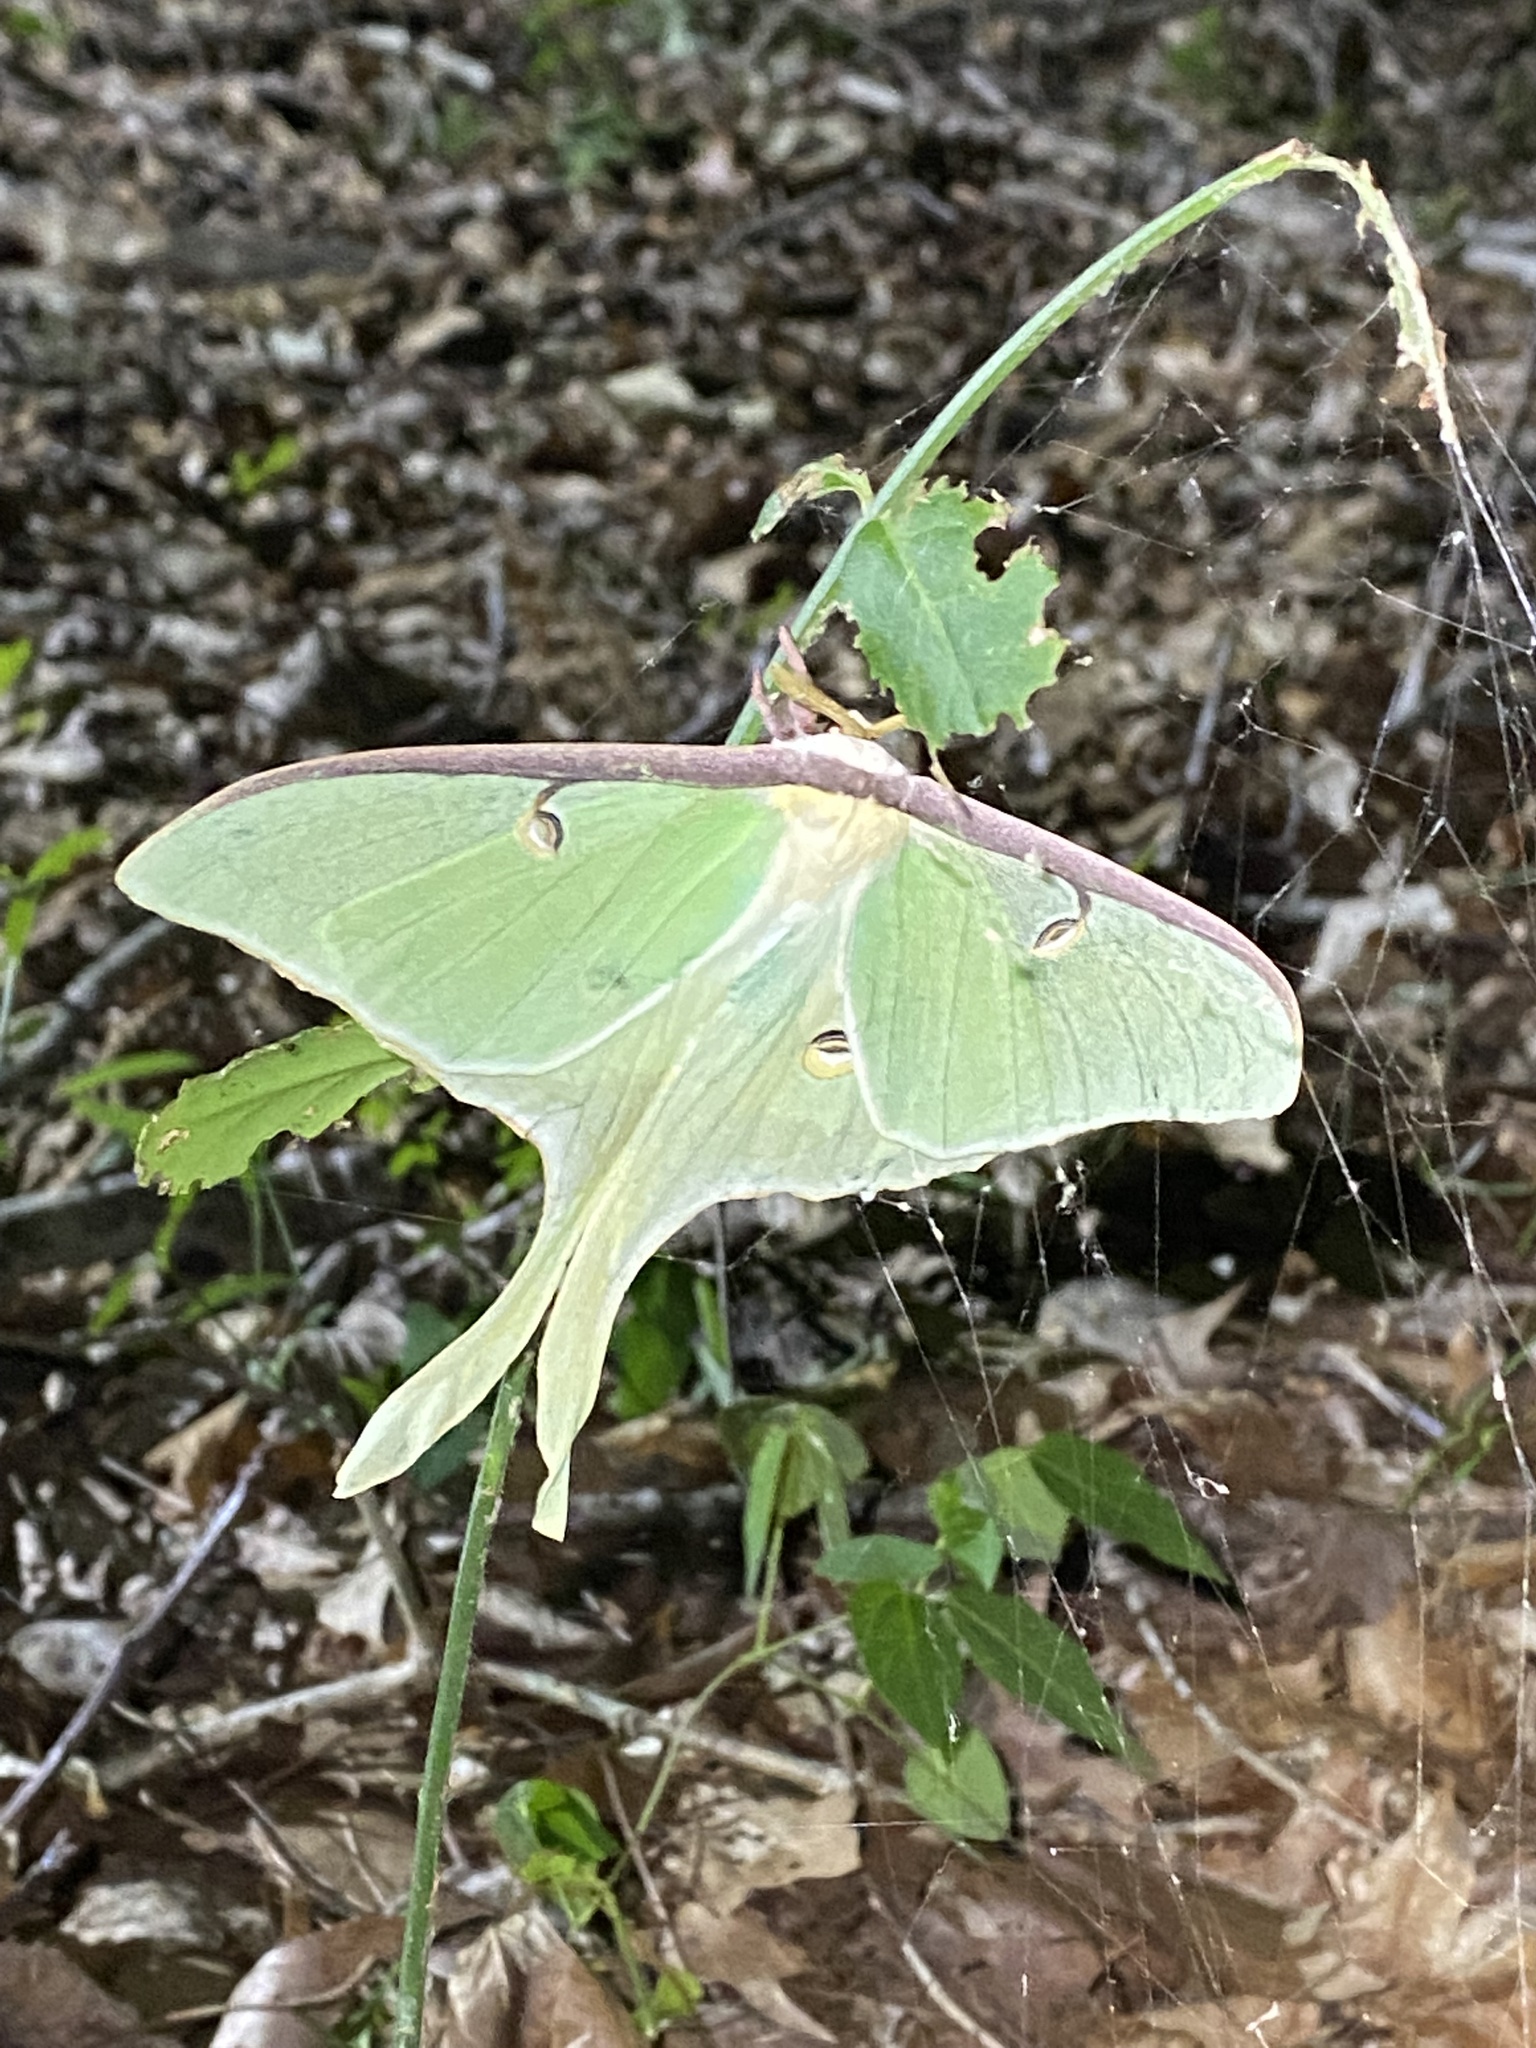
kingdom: Animalia
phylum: Arthropoda
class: Insecta
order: Lepidoptera
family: Saturniidae
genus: Actias
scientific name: Actias luna
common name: Luna moth
